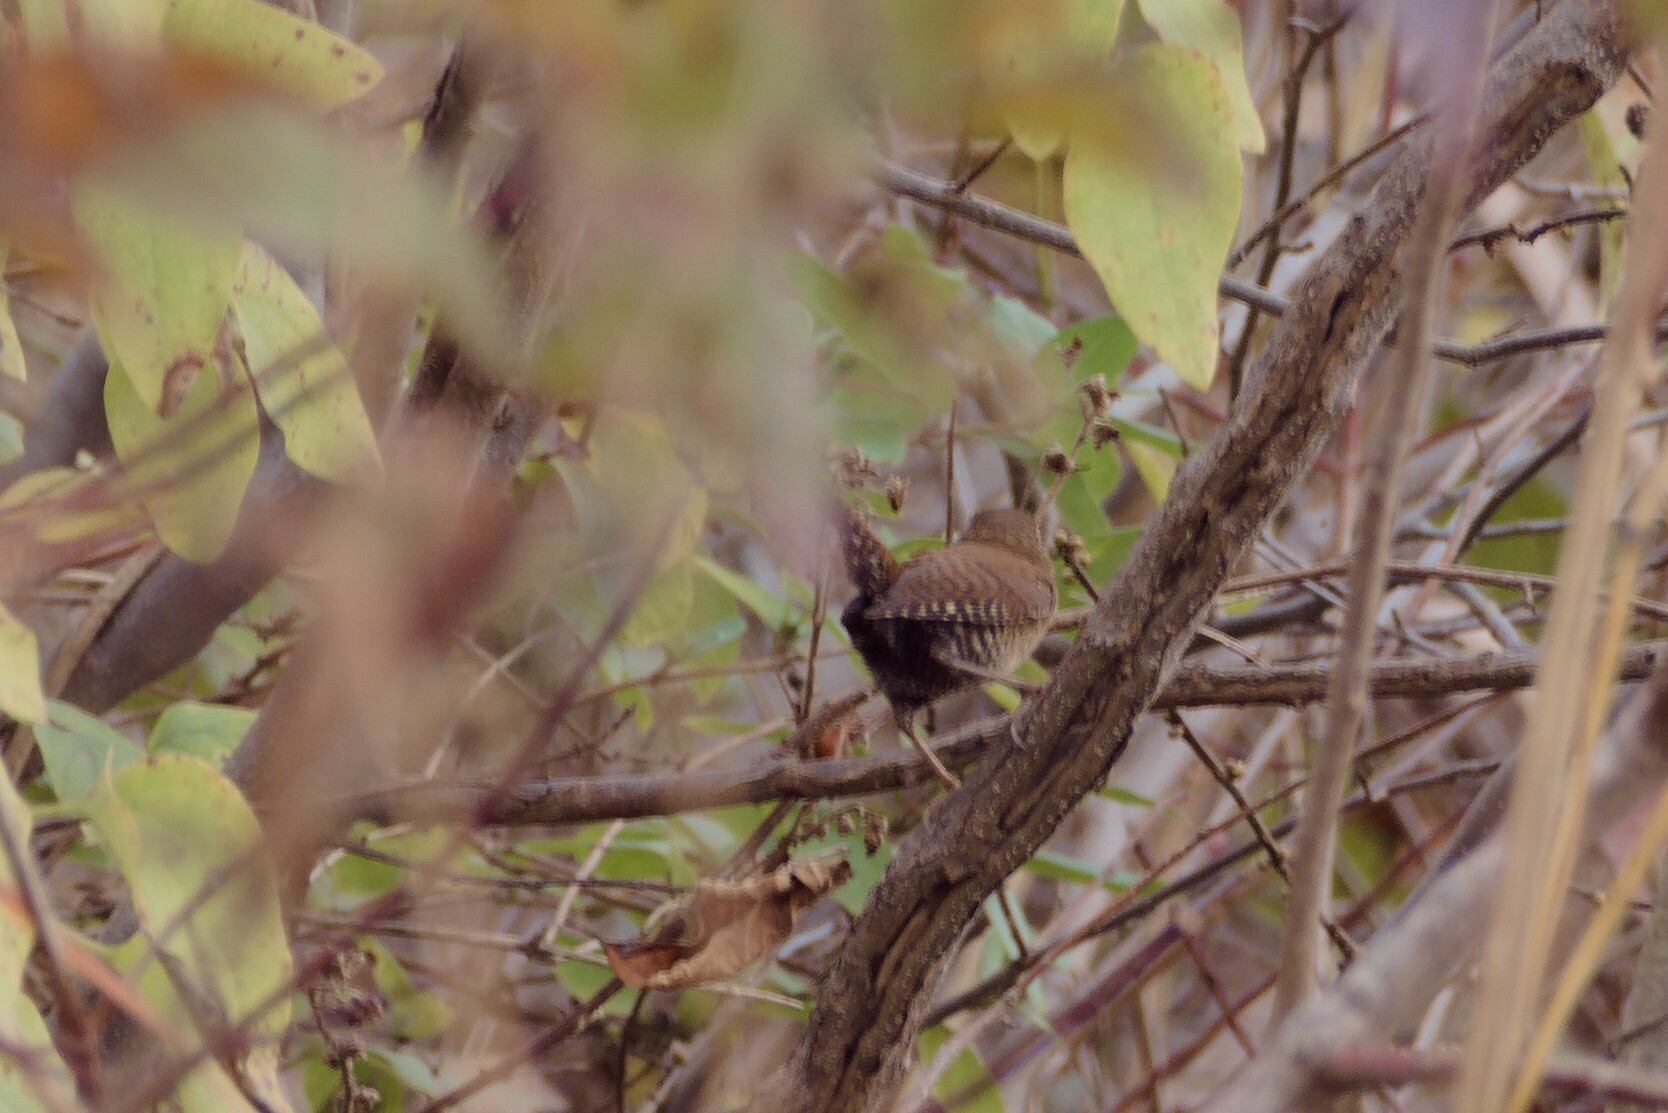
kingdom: Animalia
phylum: Chordata
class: Aves
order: Passeriformes
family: Troglodytidae
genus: Troglodytes
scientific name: Troglodytes hiemalis
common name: Winter wren
